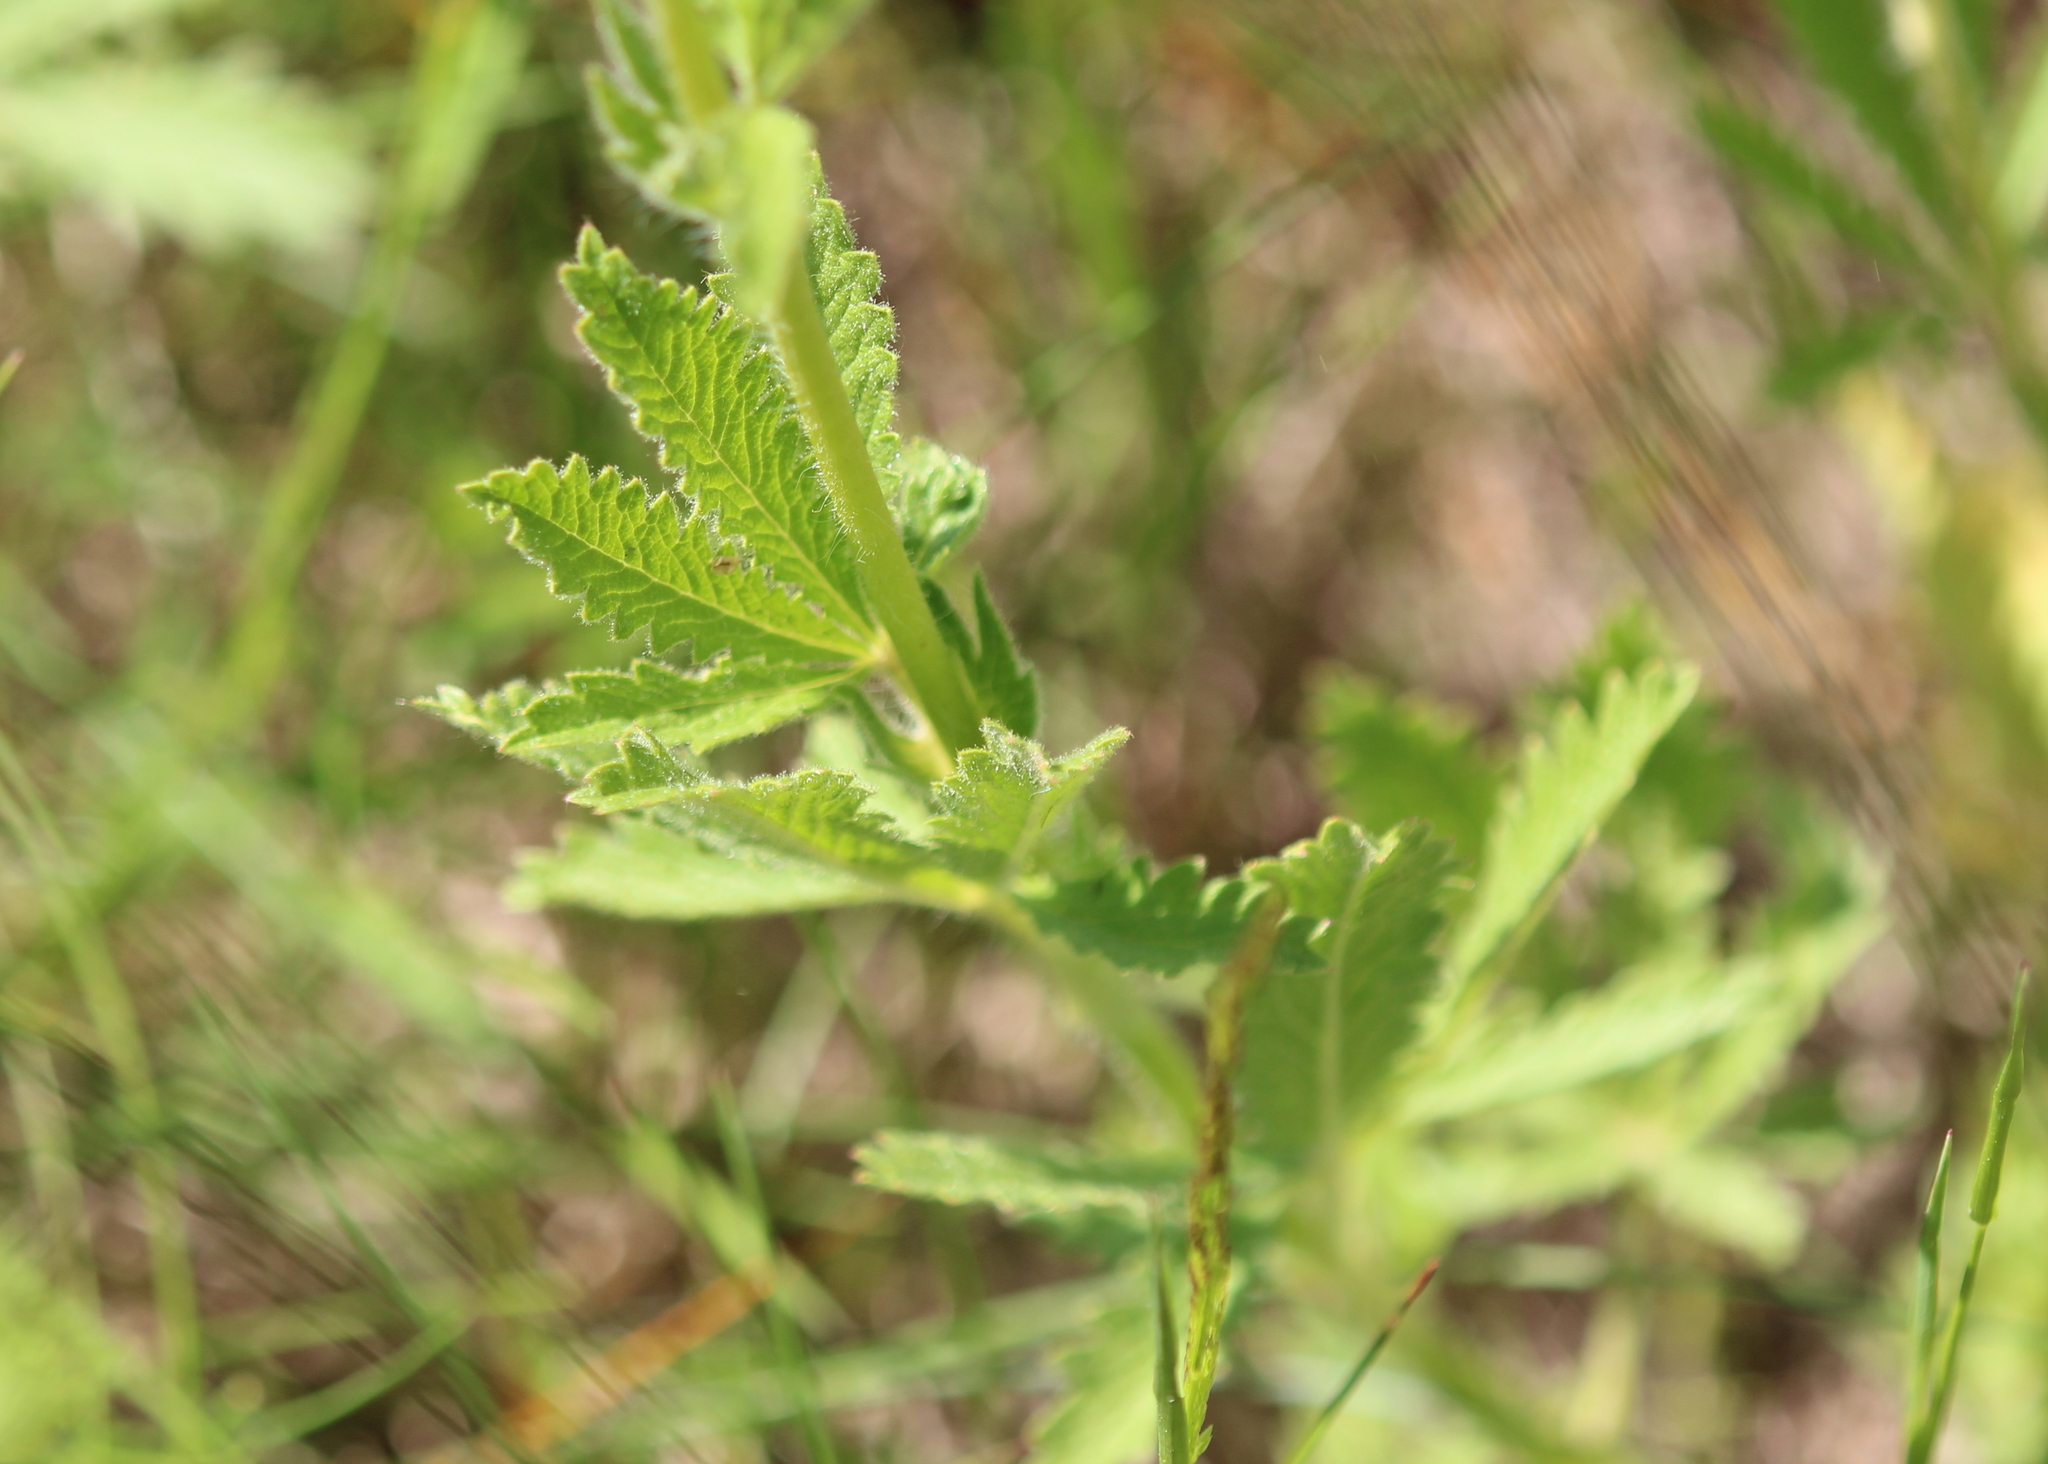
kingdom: Plantae
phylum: Tracheophyta
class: Magnoliopsida
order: Rosales
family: Rosaceae
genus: Potentilla
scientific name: Potentilla recta
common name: Sulphur cinquefoil
